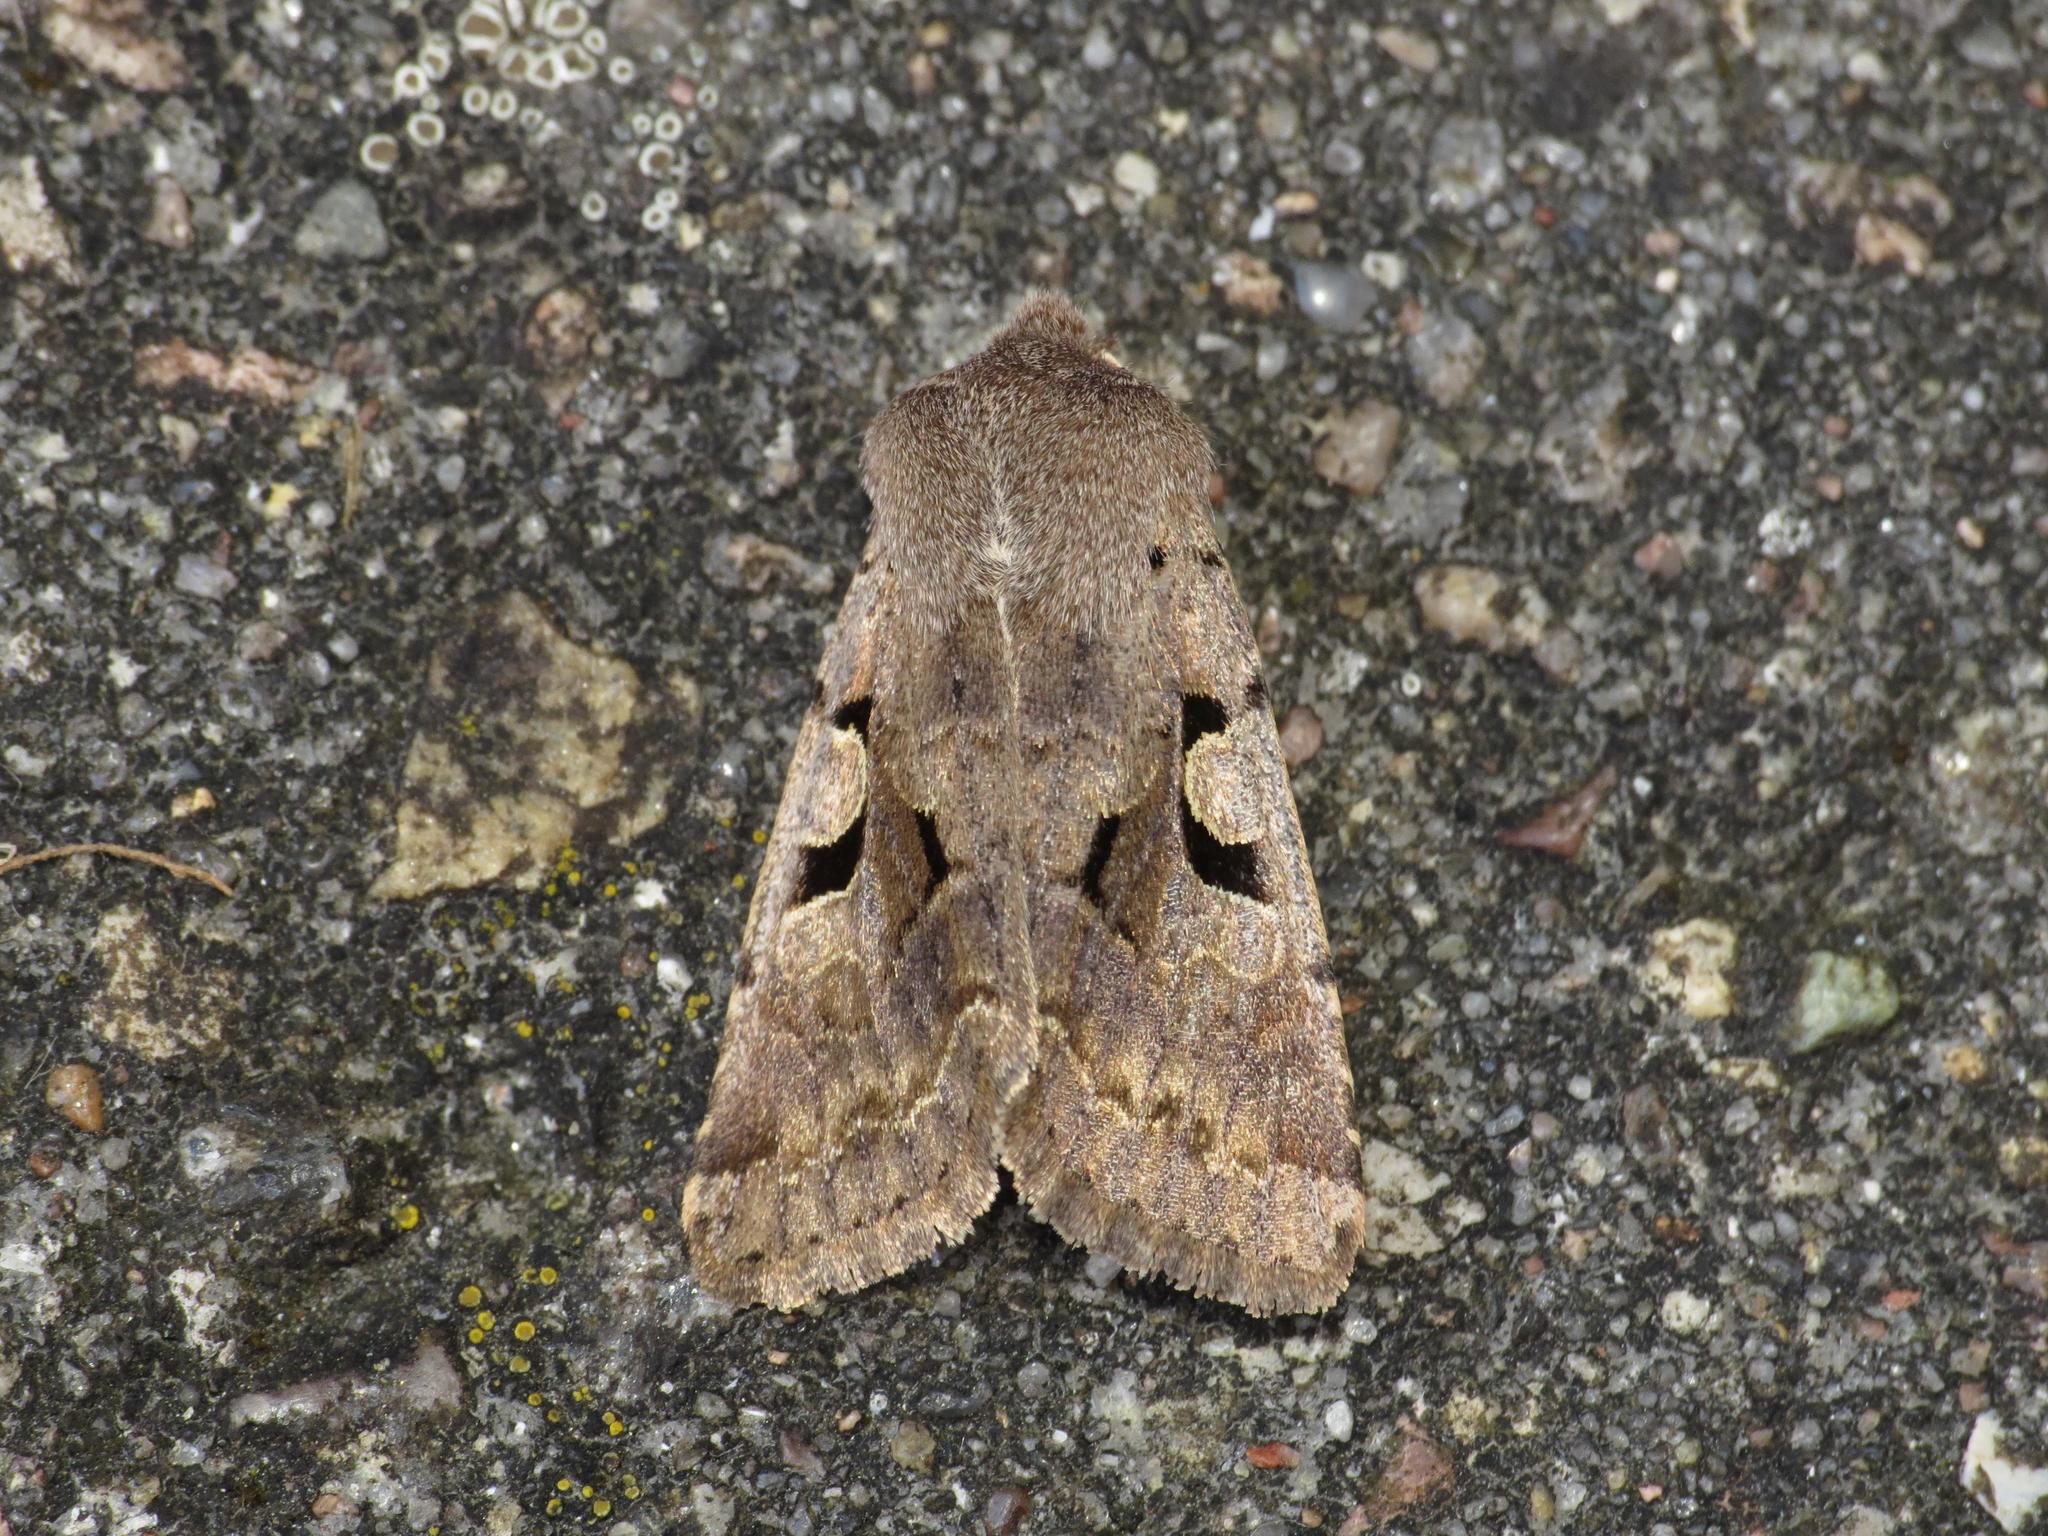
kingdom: Animalia
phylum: Arthropoda
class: Insecta
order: Lepidoptera
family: Noctuidae
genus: Orthosia
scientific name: Orthosia gothica
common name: Hebrew character
